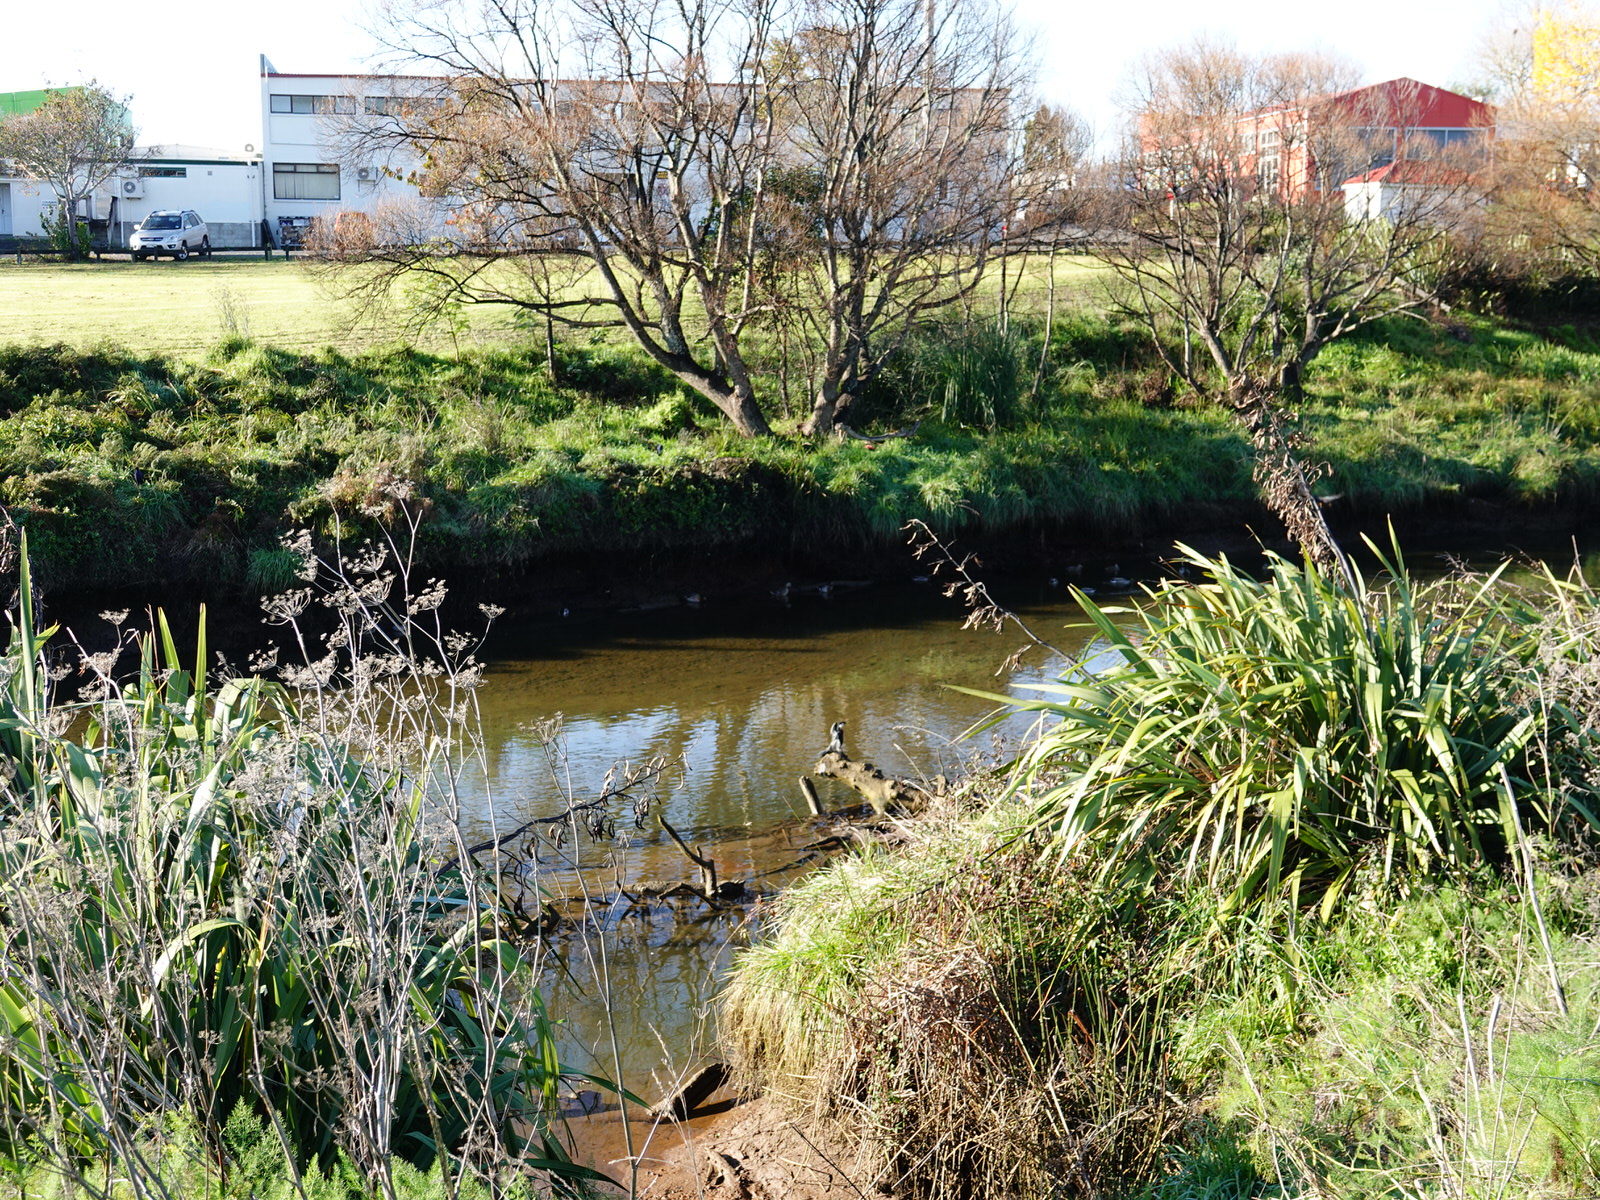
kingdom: Animalia
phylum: Chordata
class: Aves
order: Suliformes
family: Phalacrocoracidae
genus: Microcarbo
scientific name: Microcarbo melanoleucos
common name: Little pied cormorant
